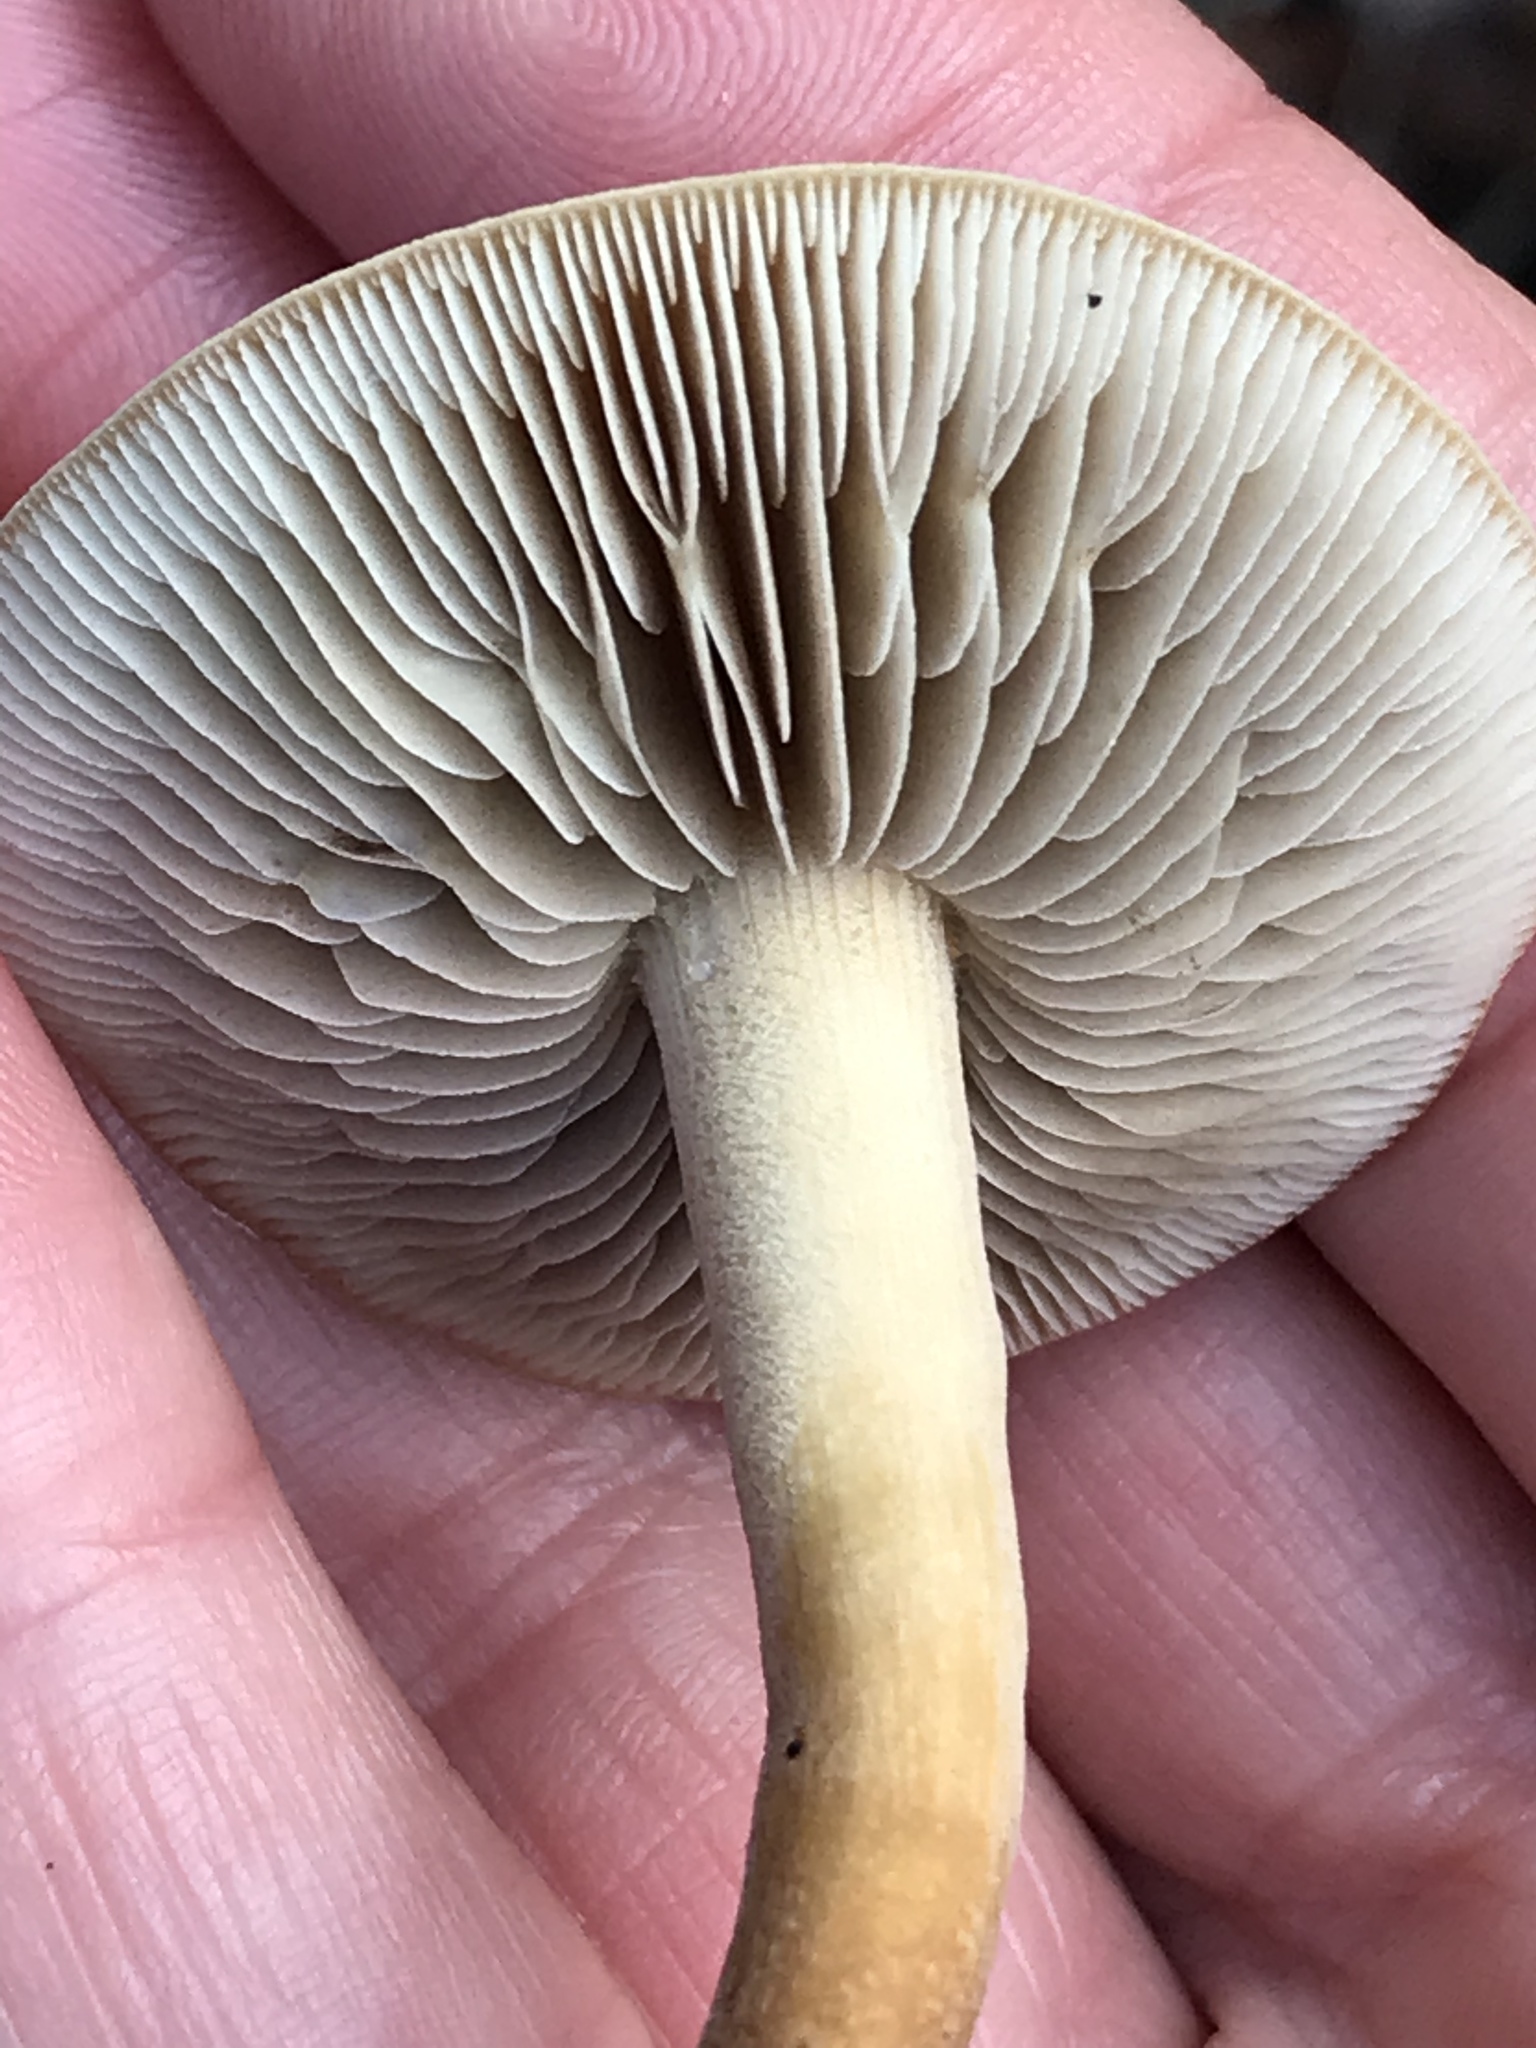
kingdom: Fungi
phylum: Basidiomycota
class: Agaricomycetes
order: Agaricales
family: Strophariaceae
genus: Agrocybe
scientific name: Agrocybe putaminum
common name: Mulch fieldcap
